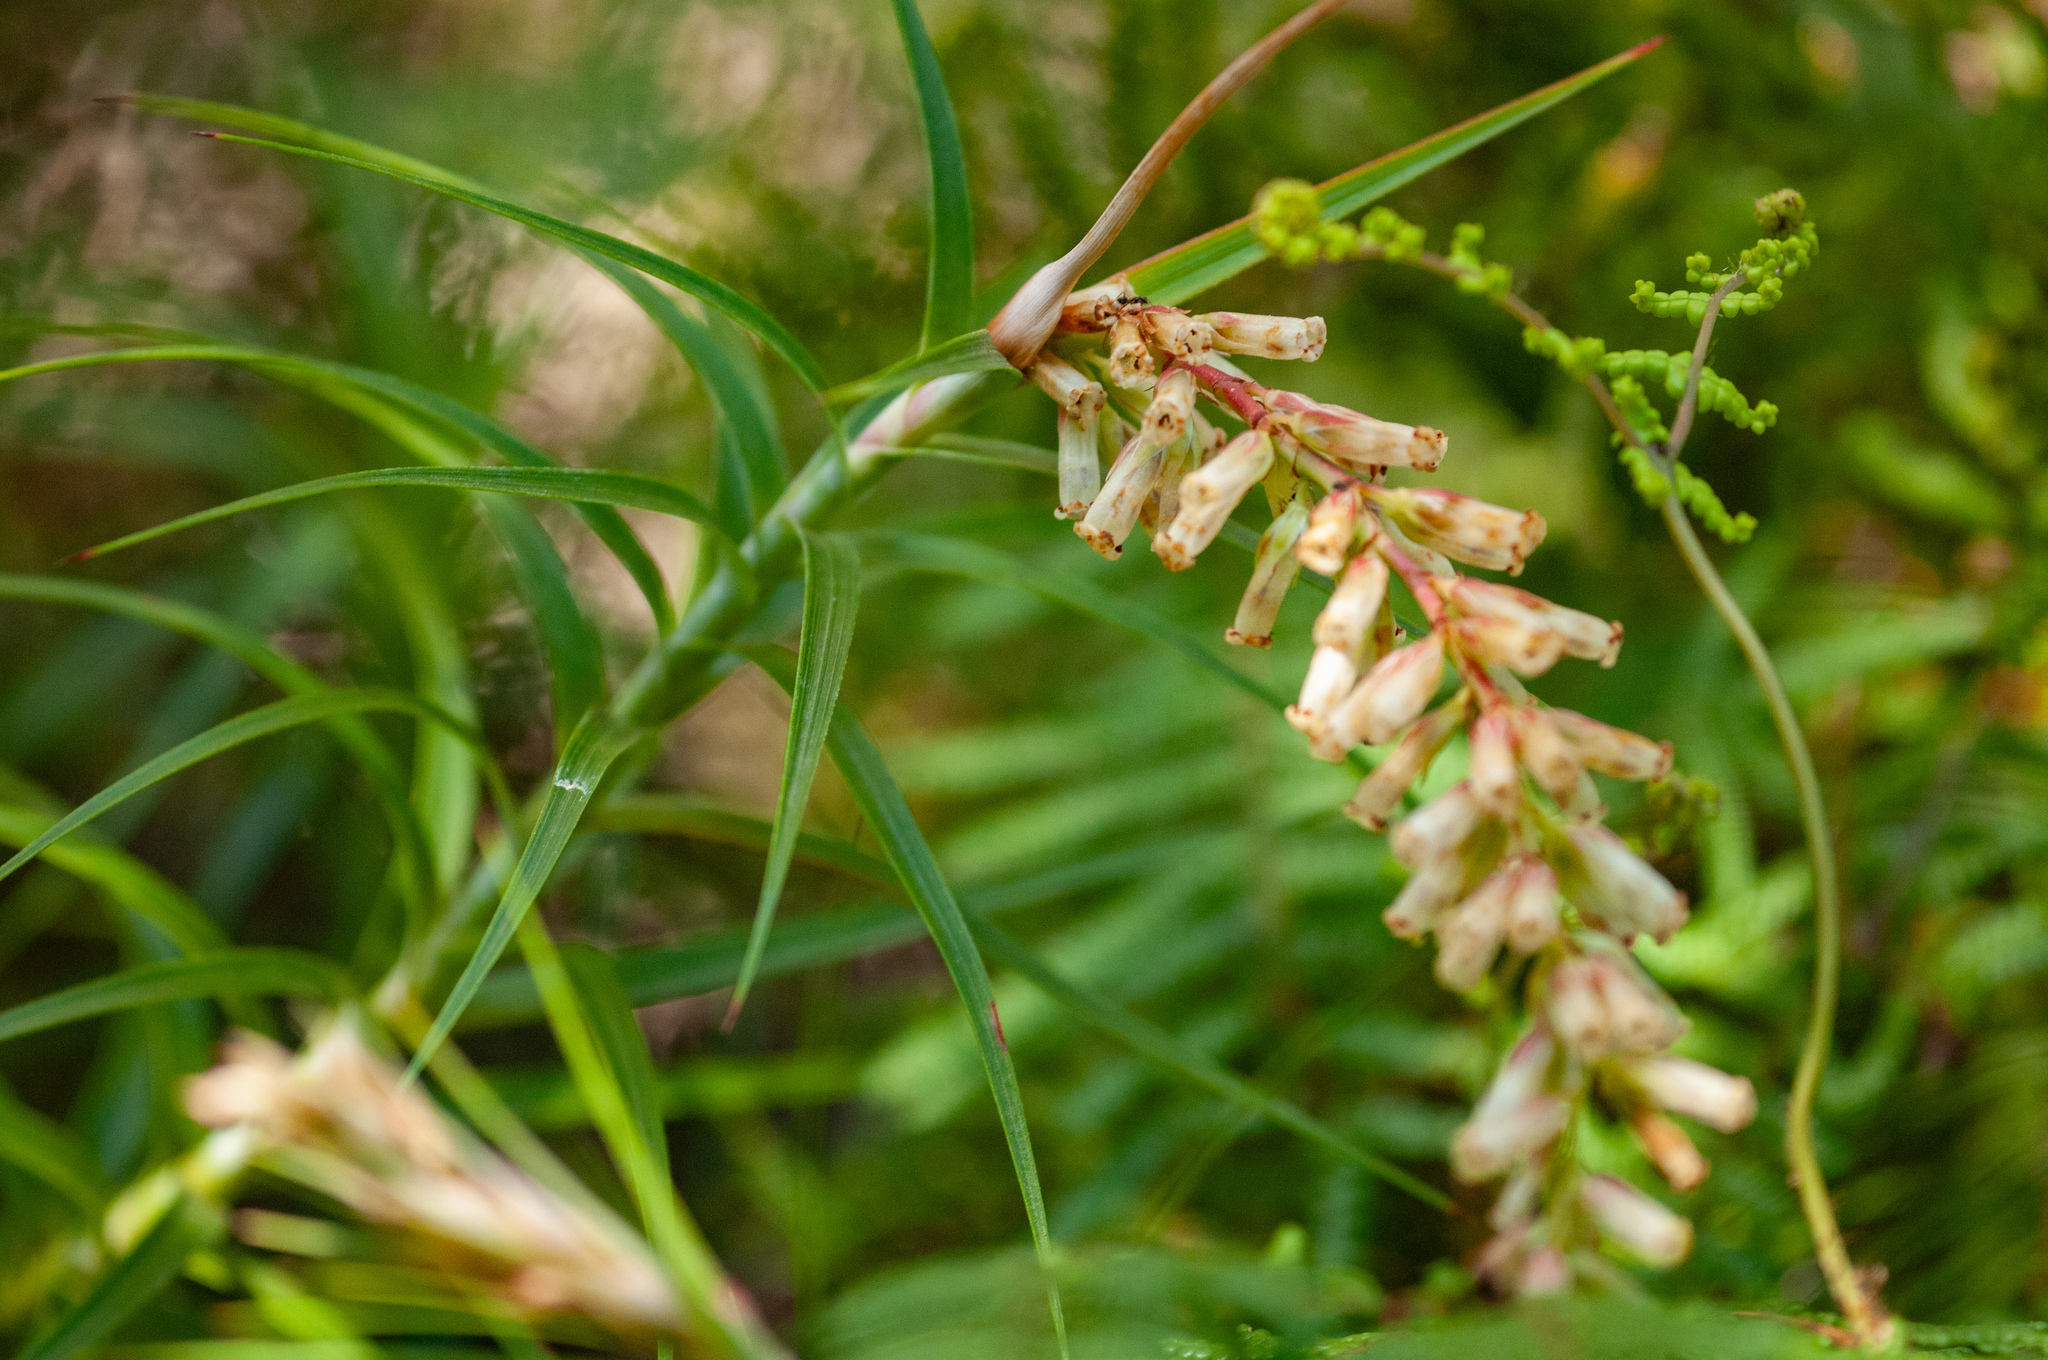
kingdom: Plantae
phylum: Tracheophyta
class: Magnoliopsida
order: Ericales
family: Ericaceae
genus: Dracophyllum
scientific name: Dracophyllum secundum
